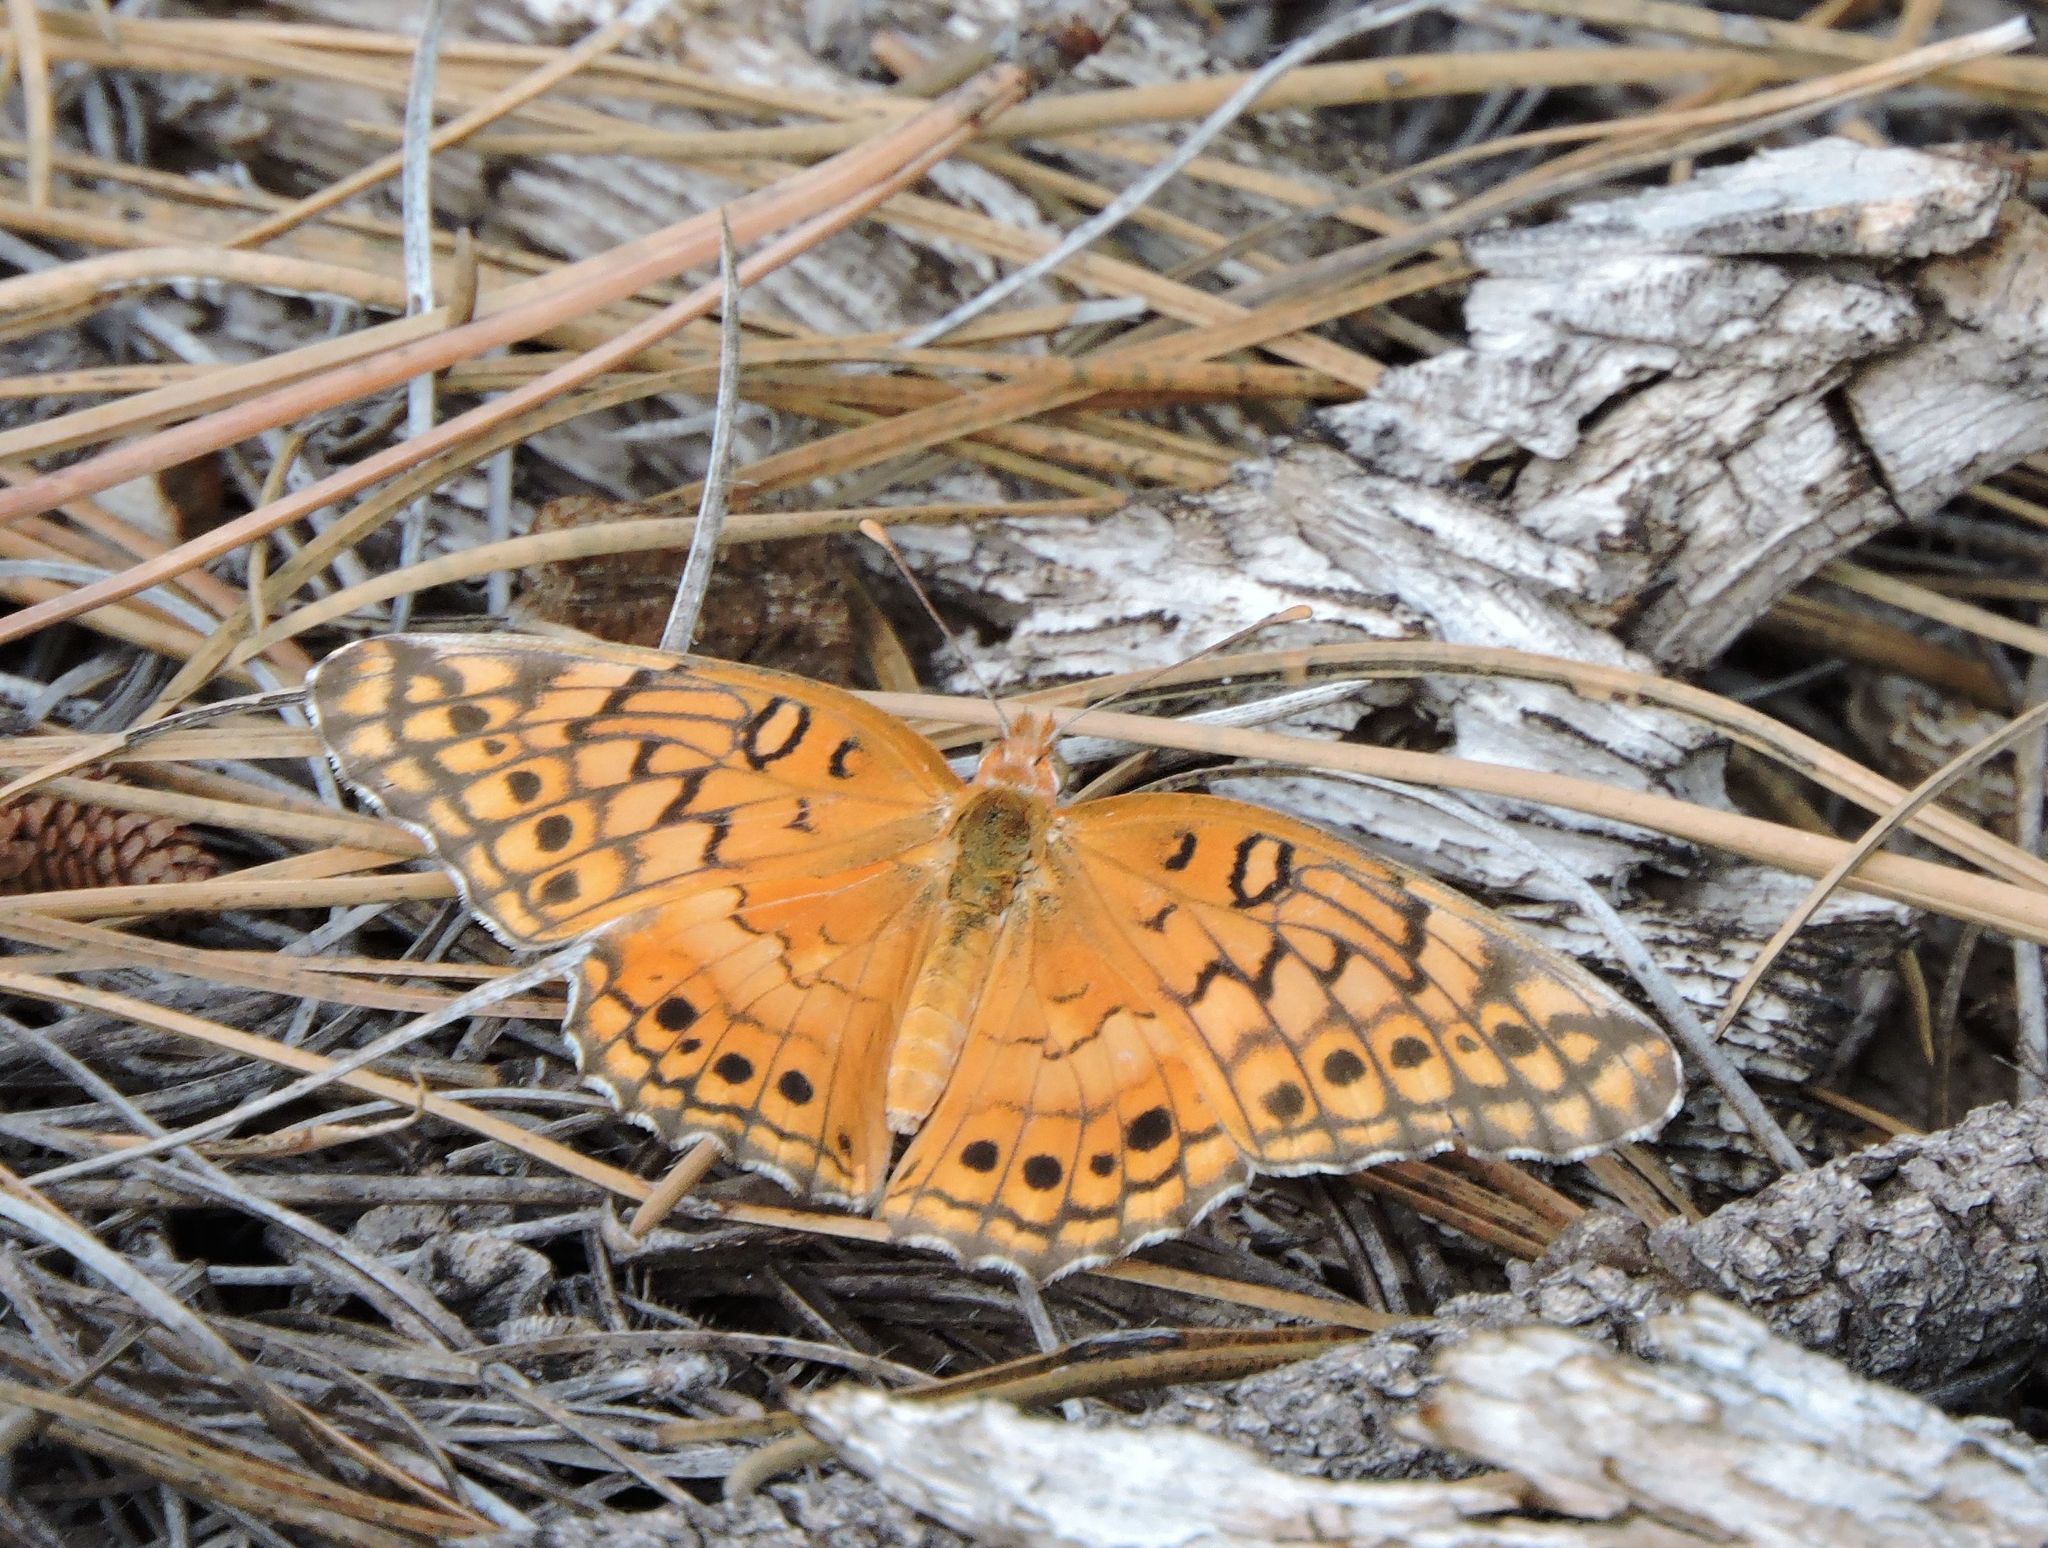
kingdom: Animalia
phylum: Arthropoda
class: Insecta
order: Lepidoptera
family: Nymphalidae
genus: Euptoieta
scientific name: Euptoieta claudia
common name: Variegated fritillary
